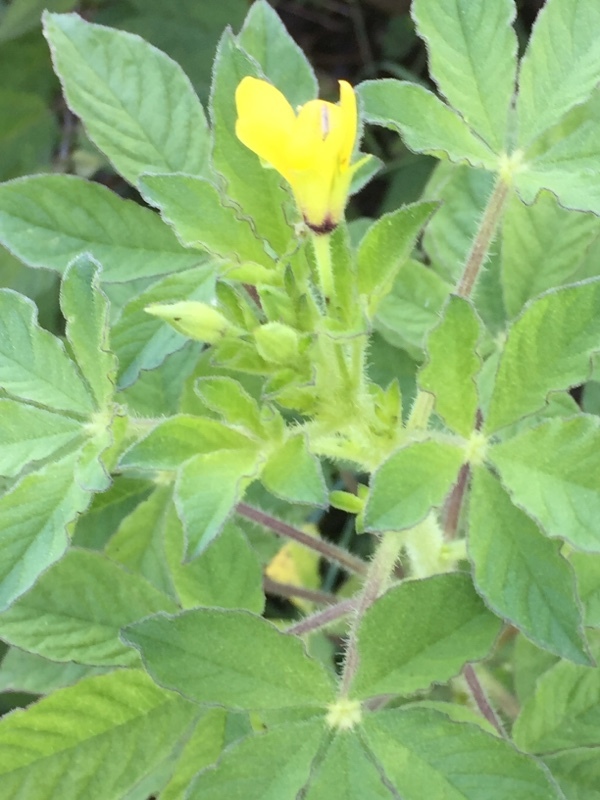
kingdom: Plantae
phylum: Tracheophyta
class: Magnoliopsida
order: Brassicales
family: Cleomaceae
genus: Arivela
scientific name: Arivela viscosa
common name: Asian spiderflower
